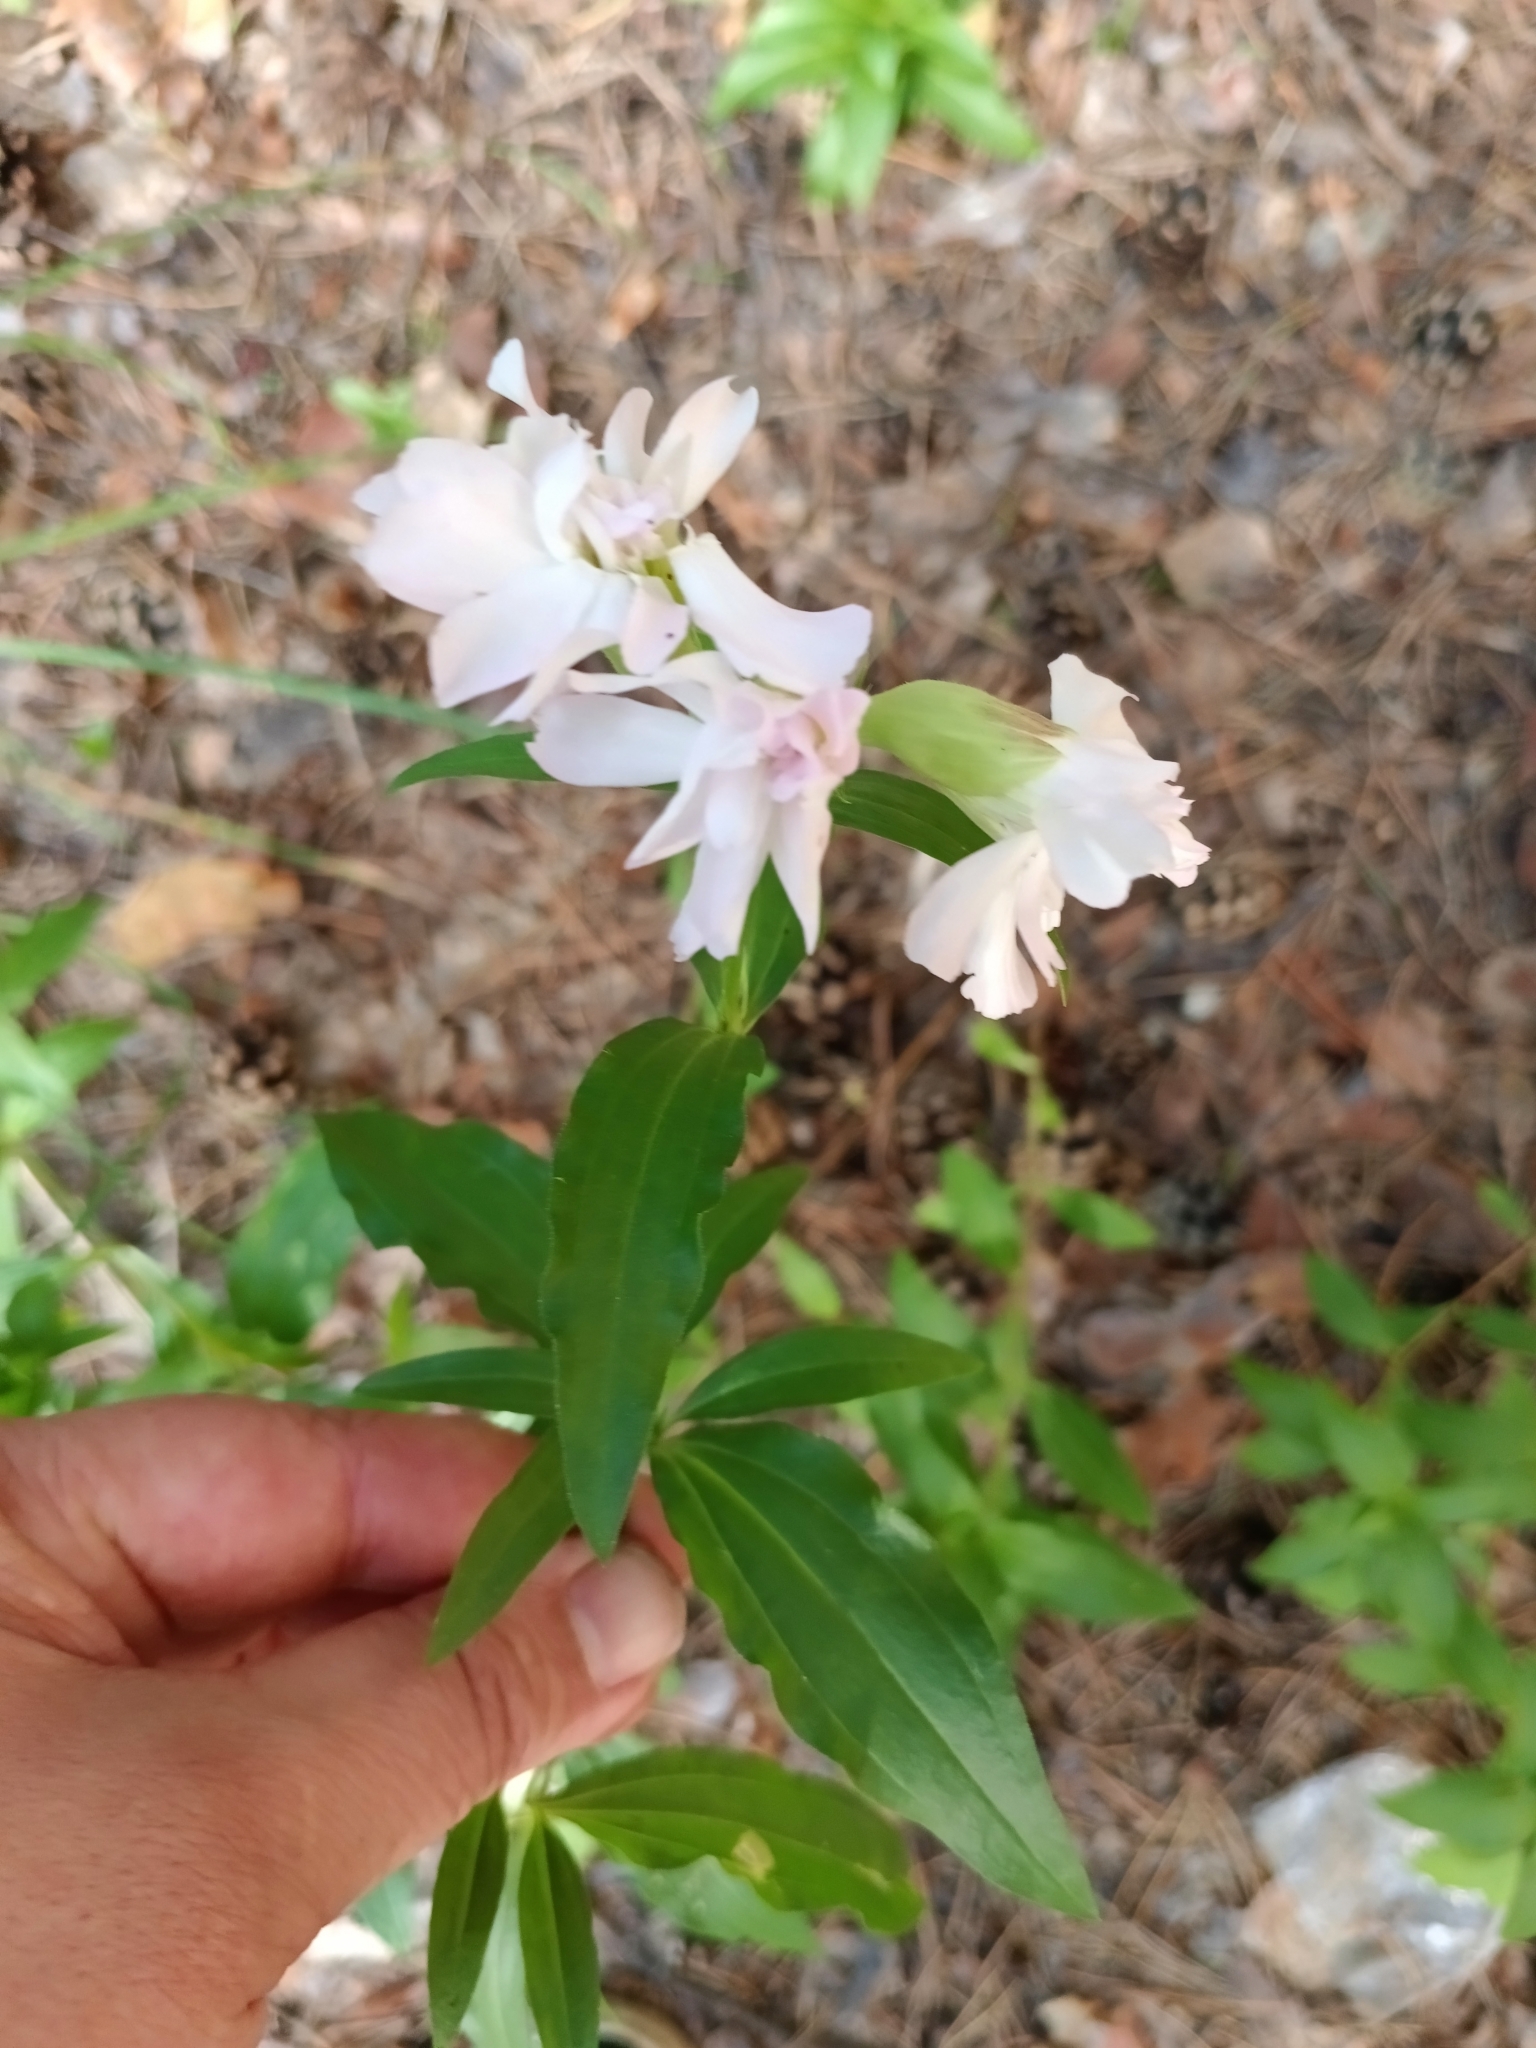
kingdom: Plantae
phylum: Tracheophyta
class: Magnoliopsida
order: Caryophyllales
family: Caryophyllaceae
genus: Saponaria
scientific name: Saponaria officinalis
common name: Soapwort
